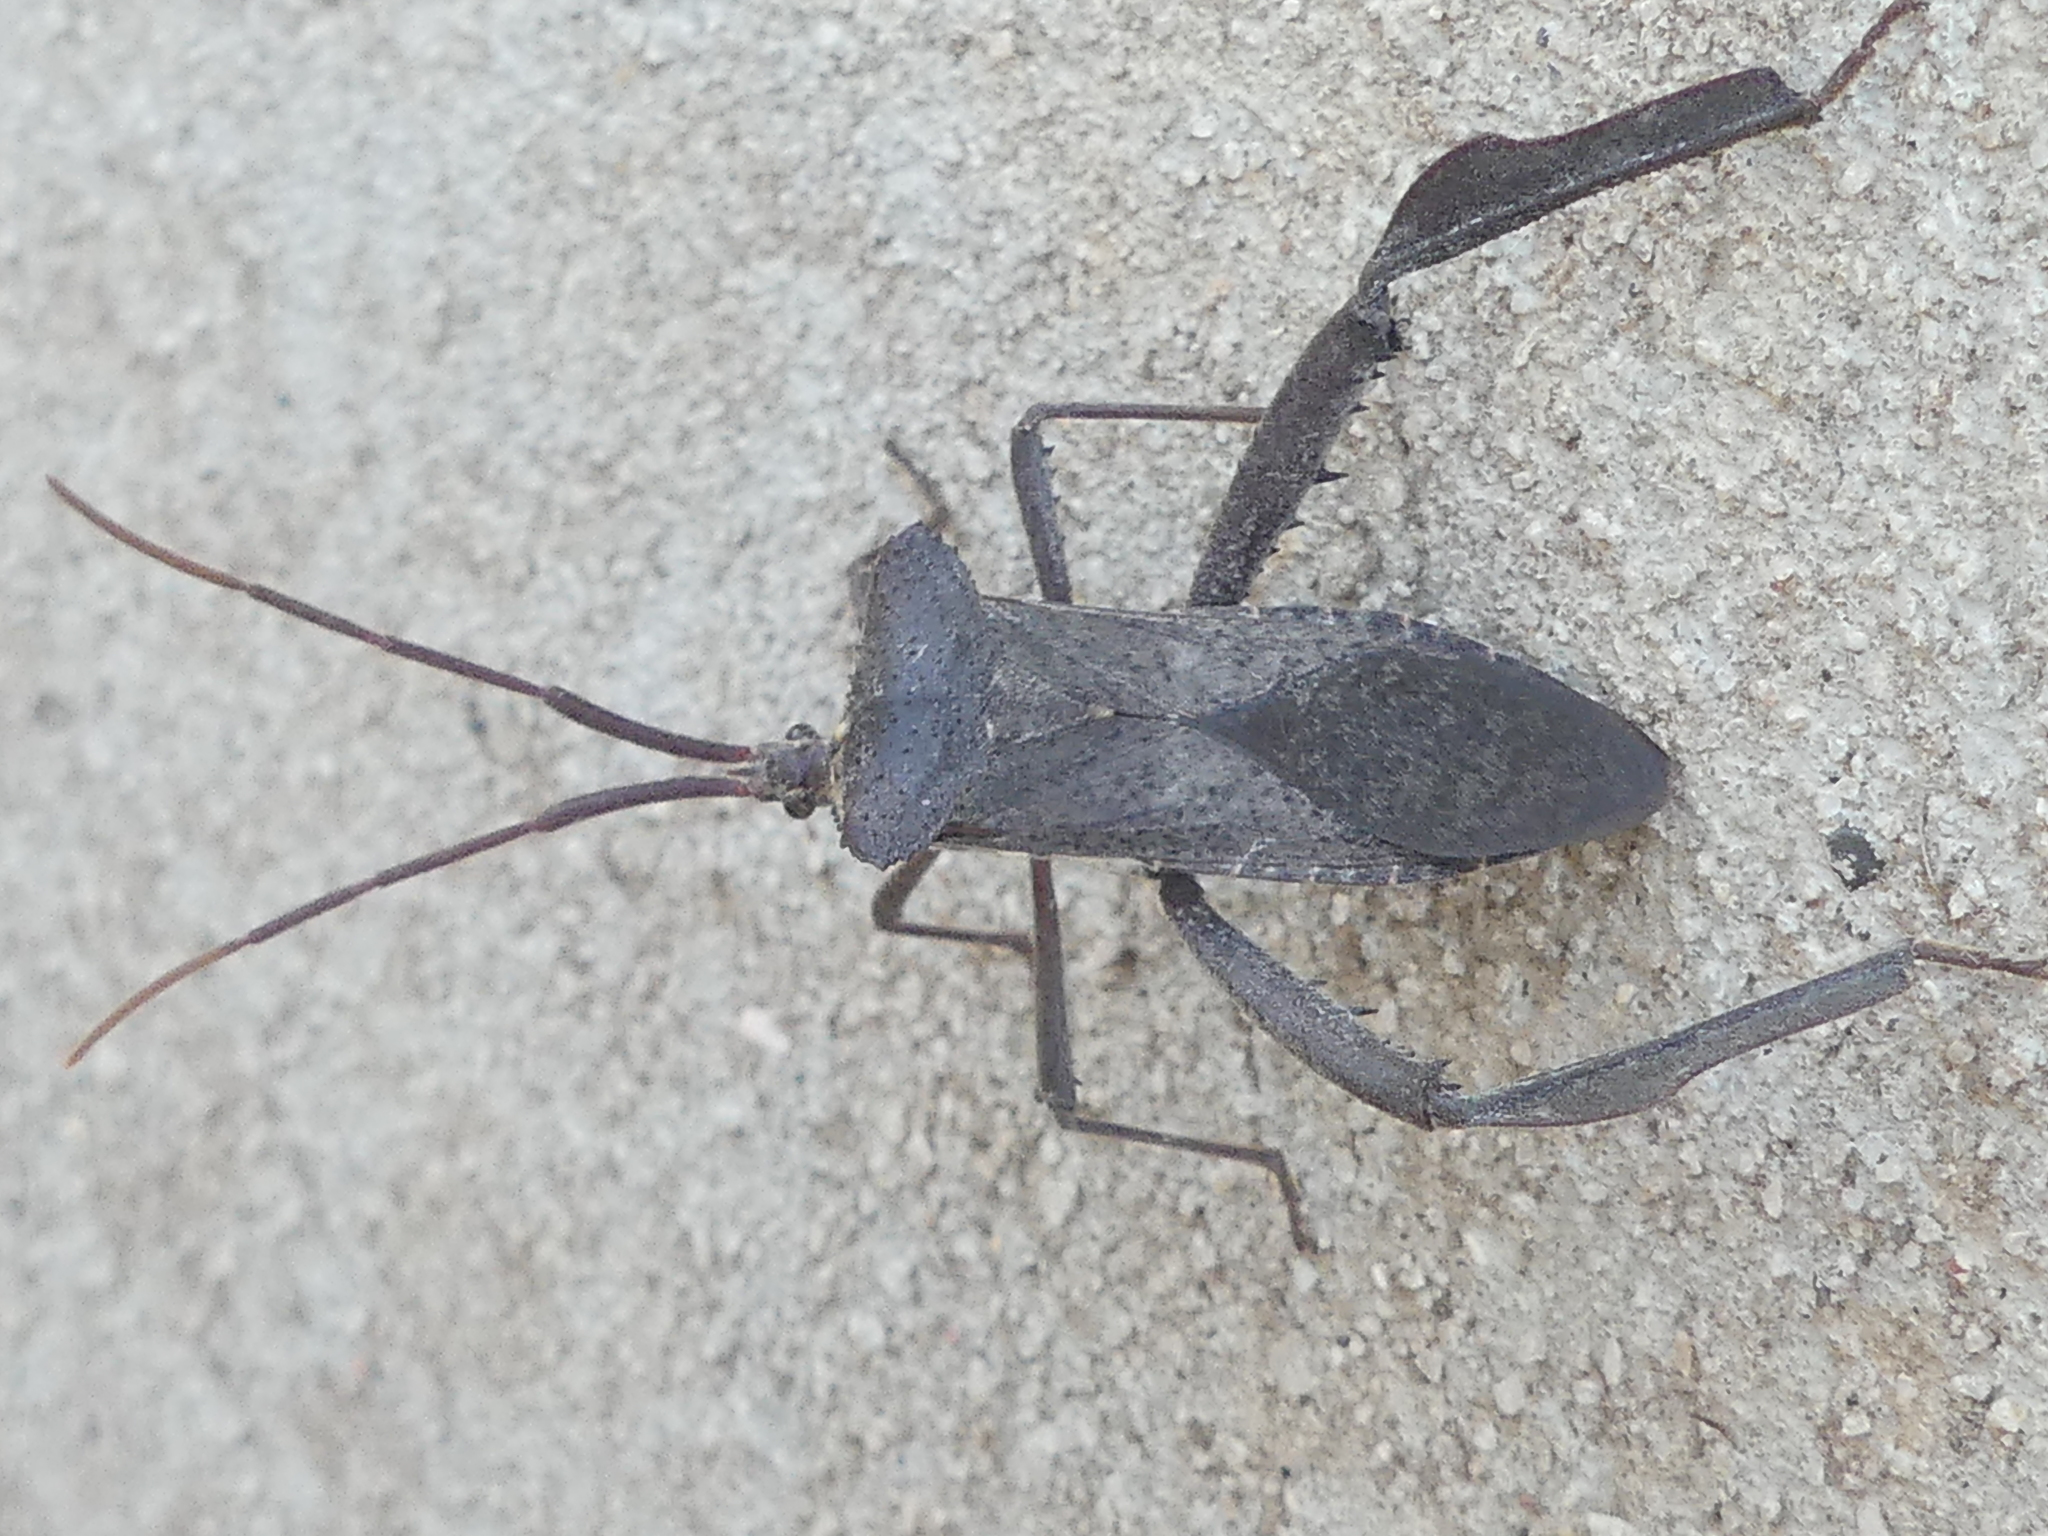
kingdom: Animalia
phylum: Arthropoda
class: Insecta
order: Hemiptera
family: Coreidae
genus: Acanthocephala
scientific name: Acanthocephala declivis
